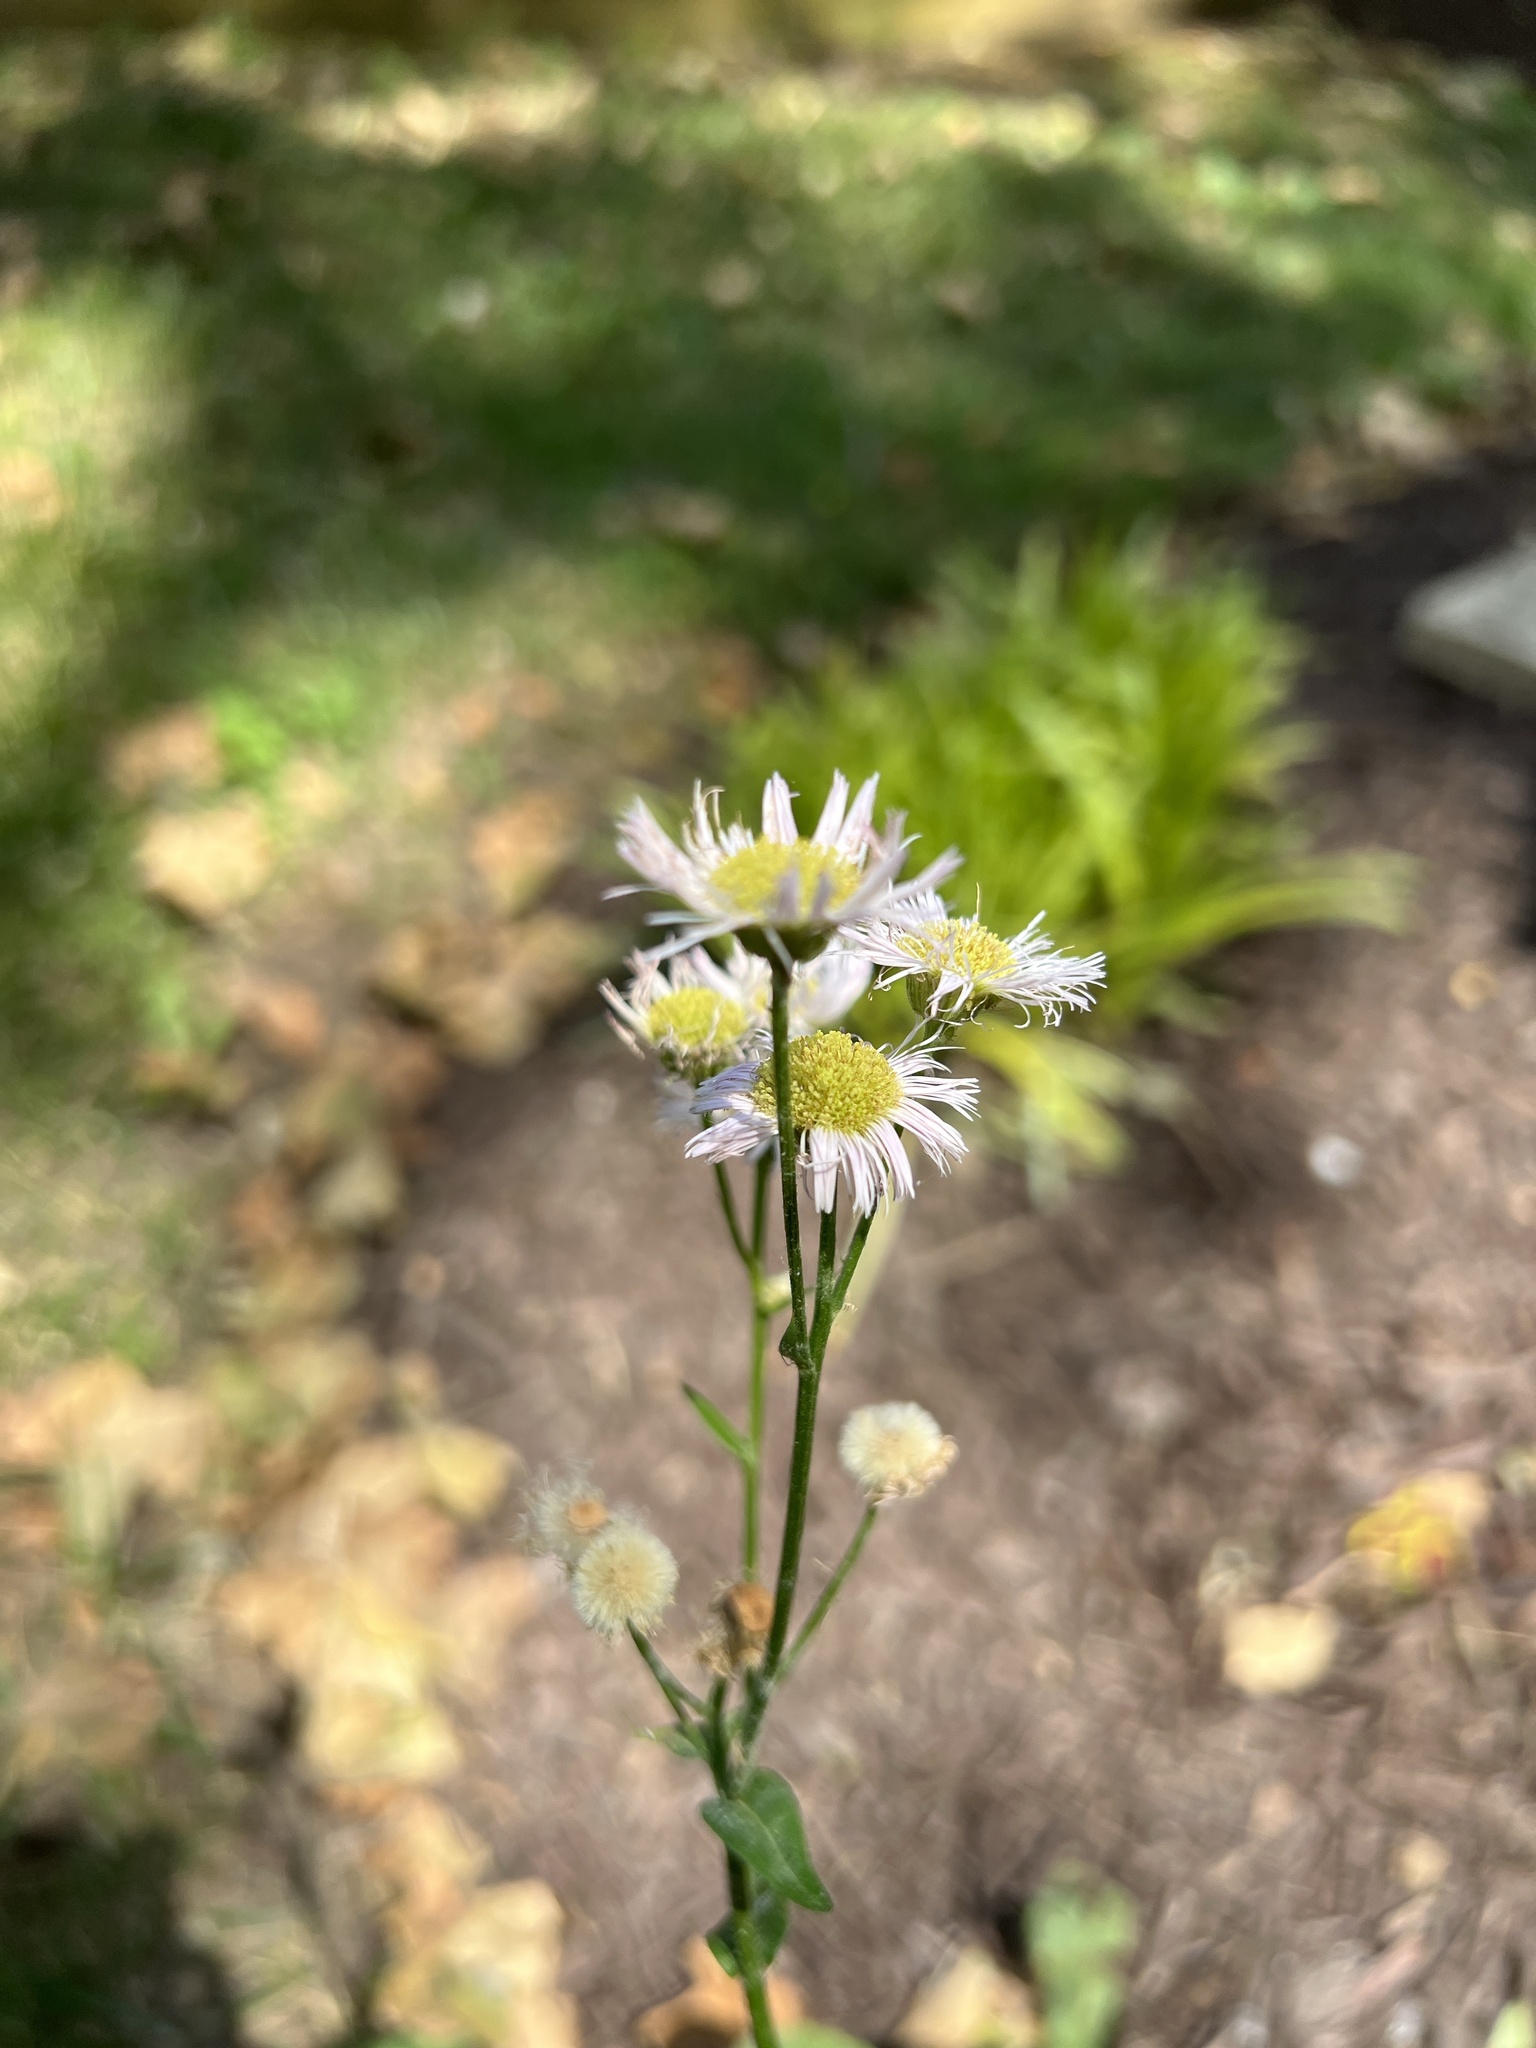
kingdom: Plantae
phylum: Tracheophyta
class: Magnoliopsida
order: Asterales
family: Asteraceae
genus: Erigeron
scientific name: Erigeron philadelphicus
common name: Robin's-plantain
